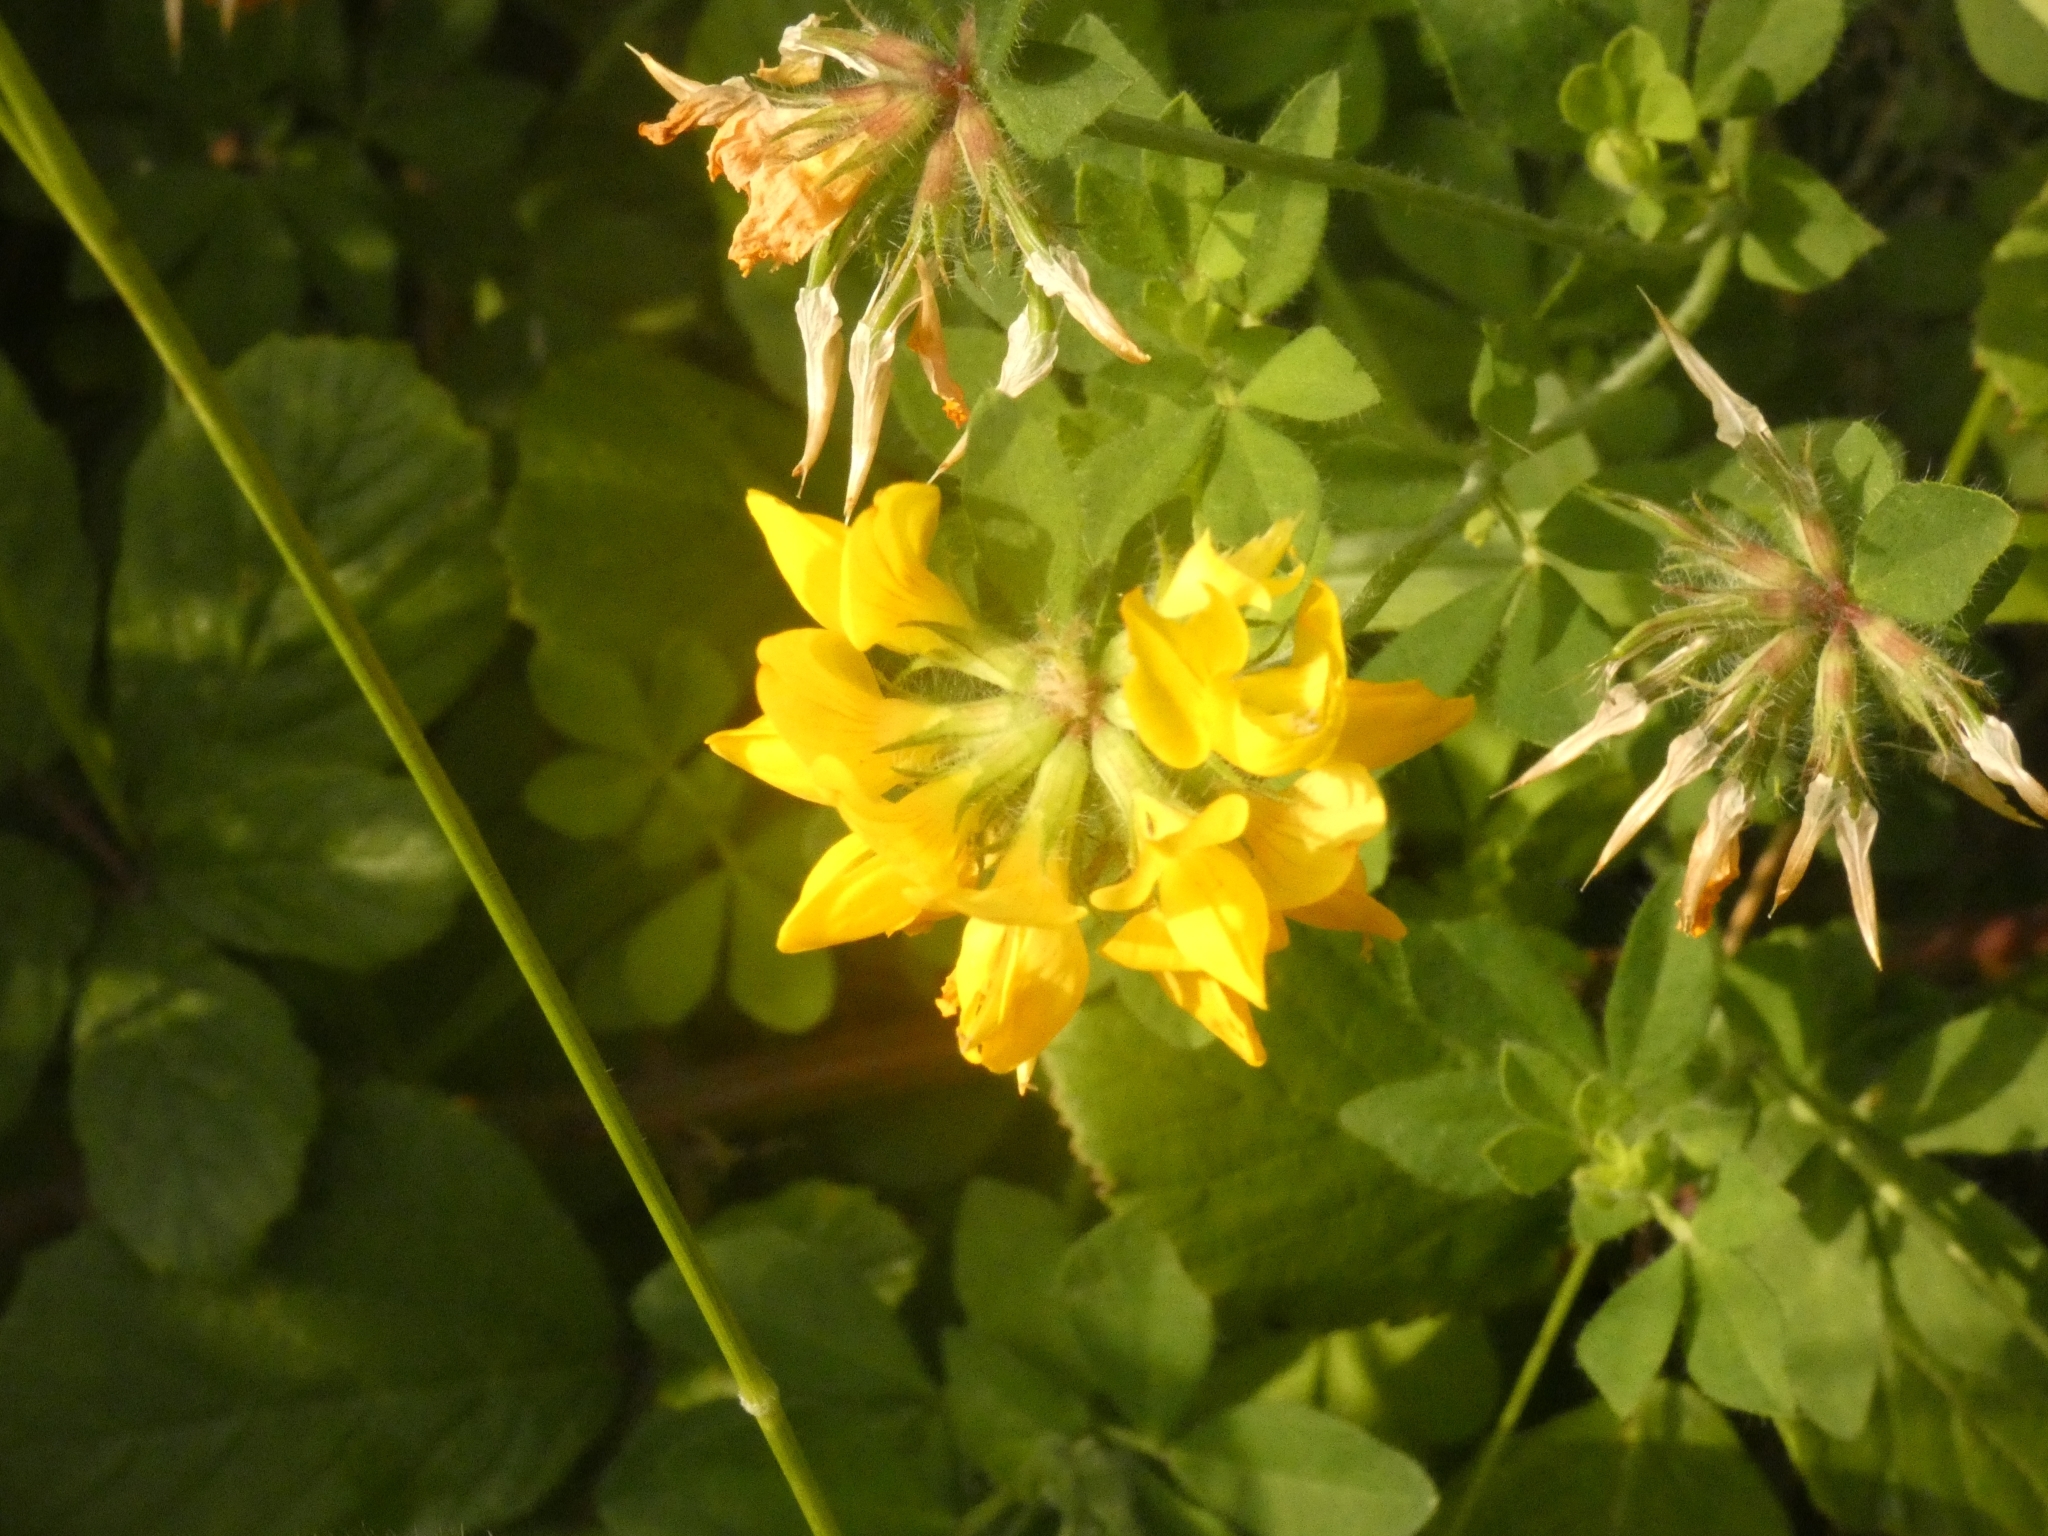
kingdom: Plantae
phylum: Tracheophyta
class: Magnoliopsida
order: Fabales
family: Fabaceae
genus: Lotus
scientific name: Lotus corniculatus
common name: Common bird's-foot-trefoil
